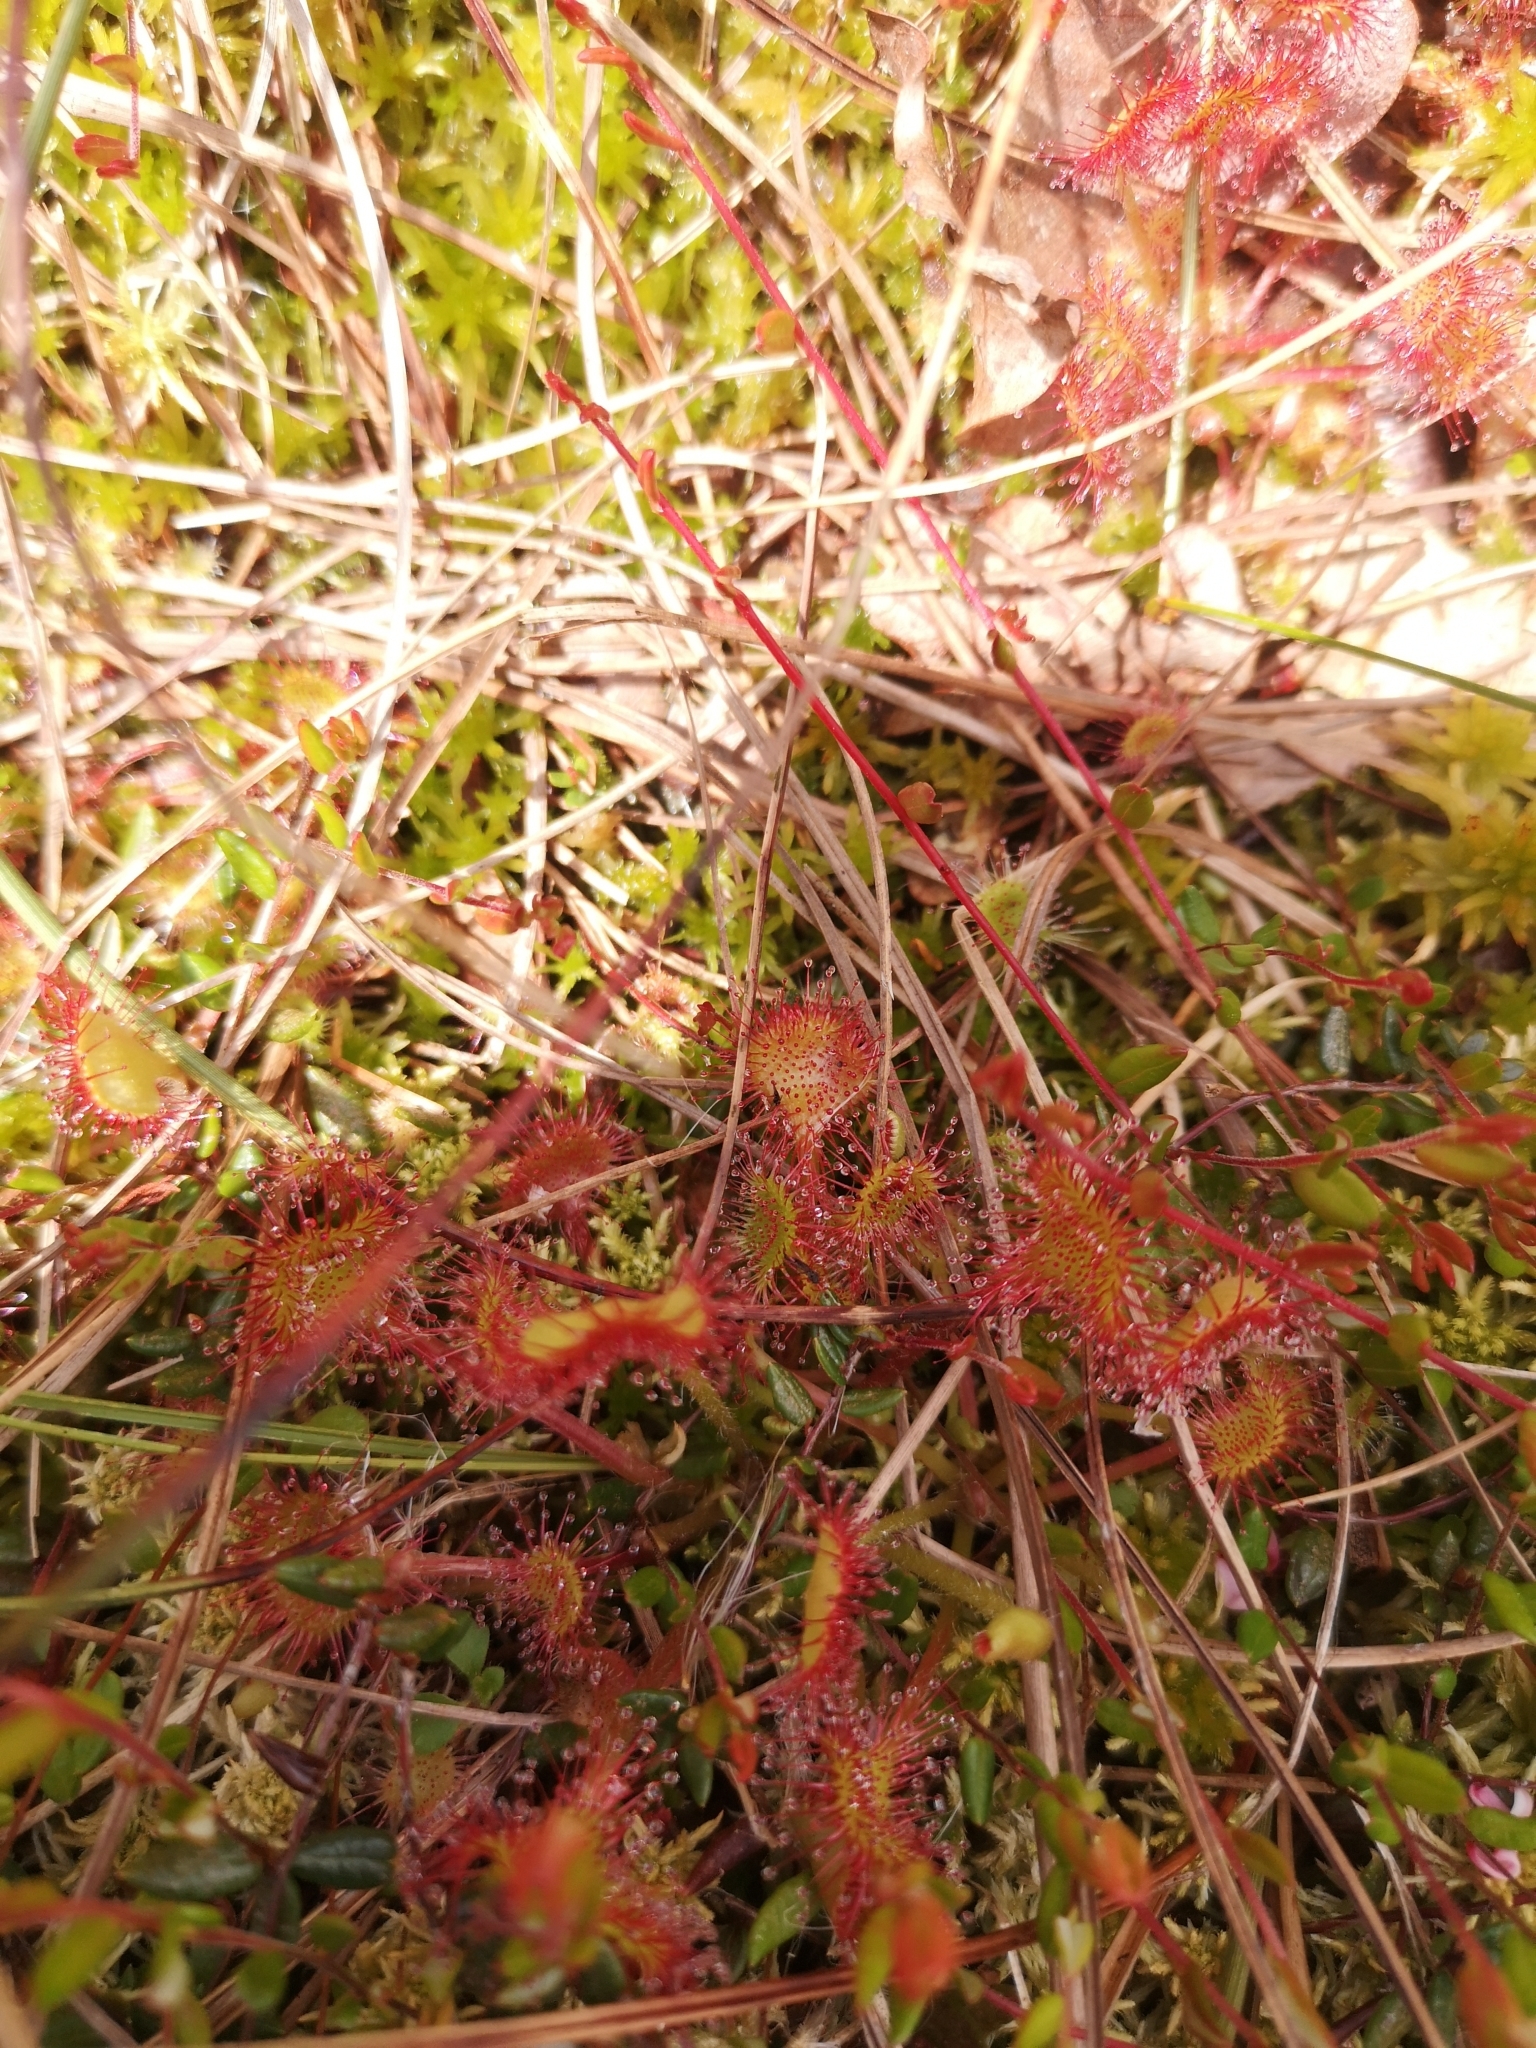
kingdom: Plantae
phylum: Tracheophyta
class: Magnoliopsida
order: Caryophyllales
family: Droseraceae
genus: Drosera
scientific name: Drosera rotundifolia
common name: Round-leaved sundew
